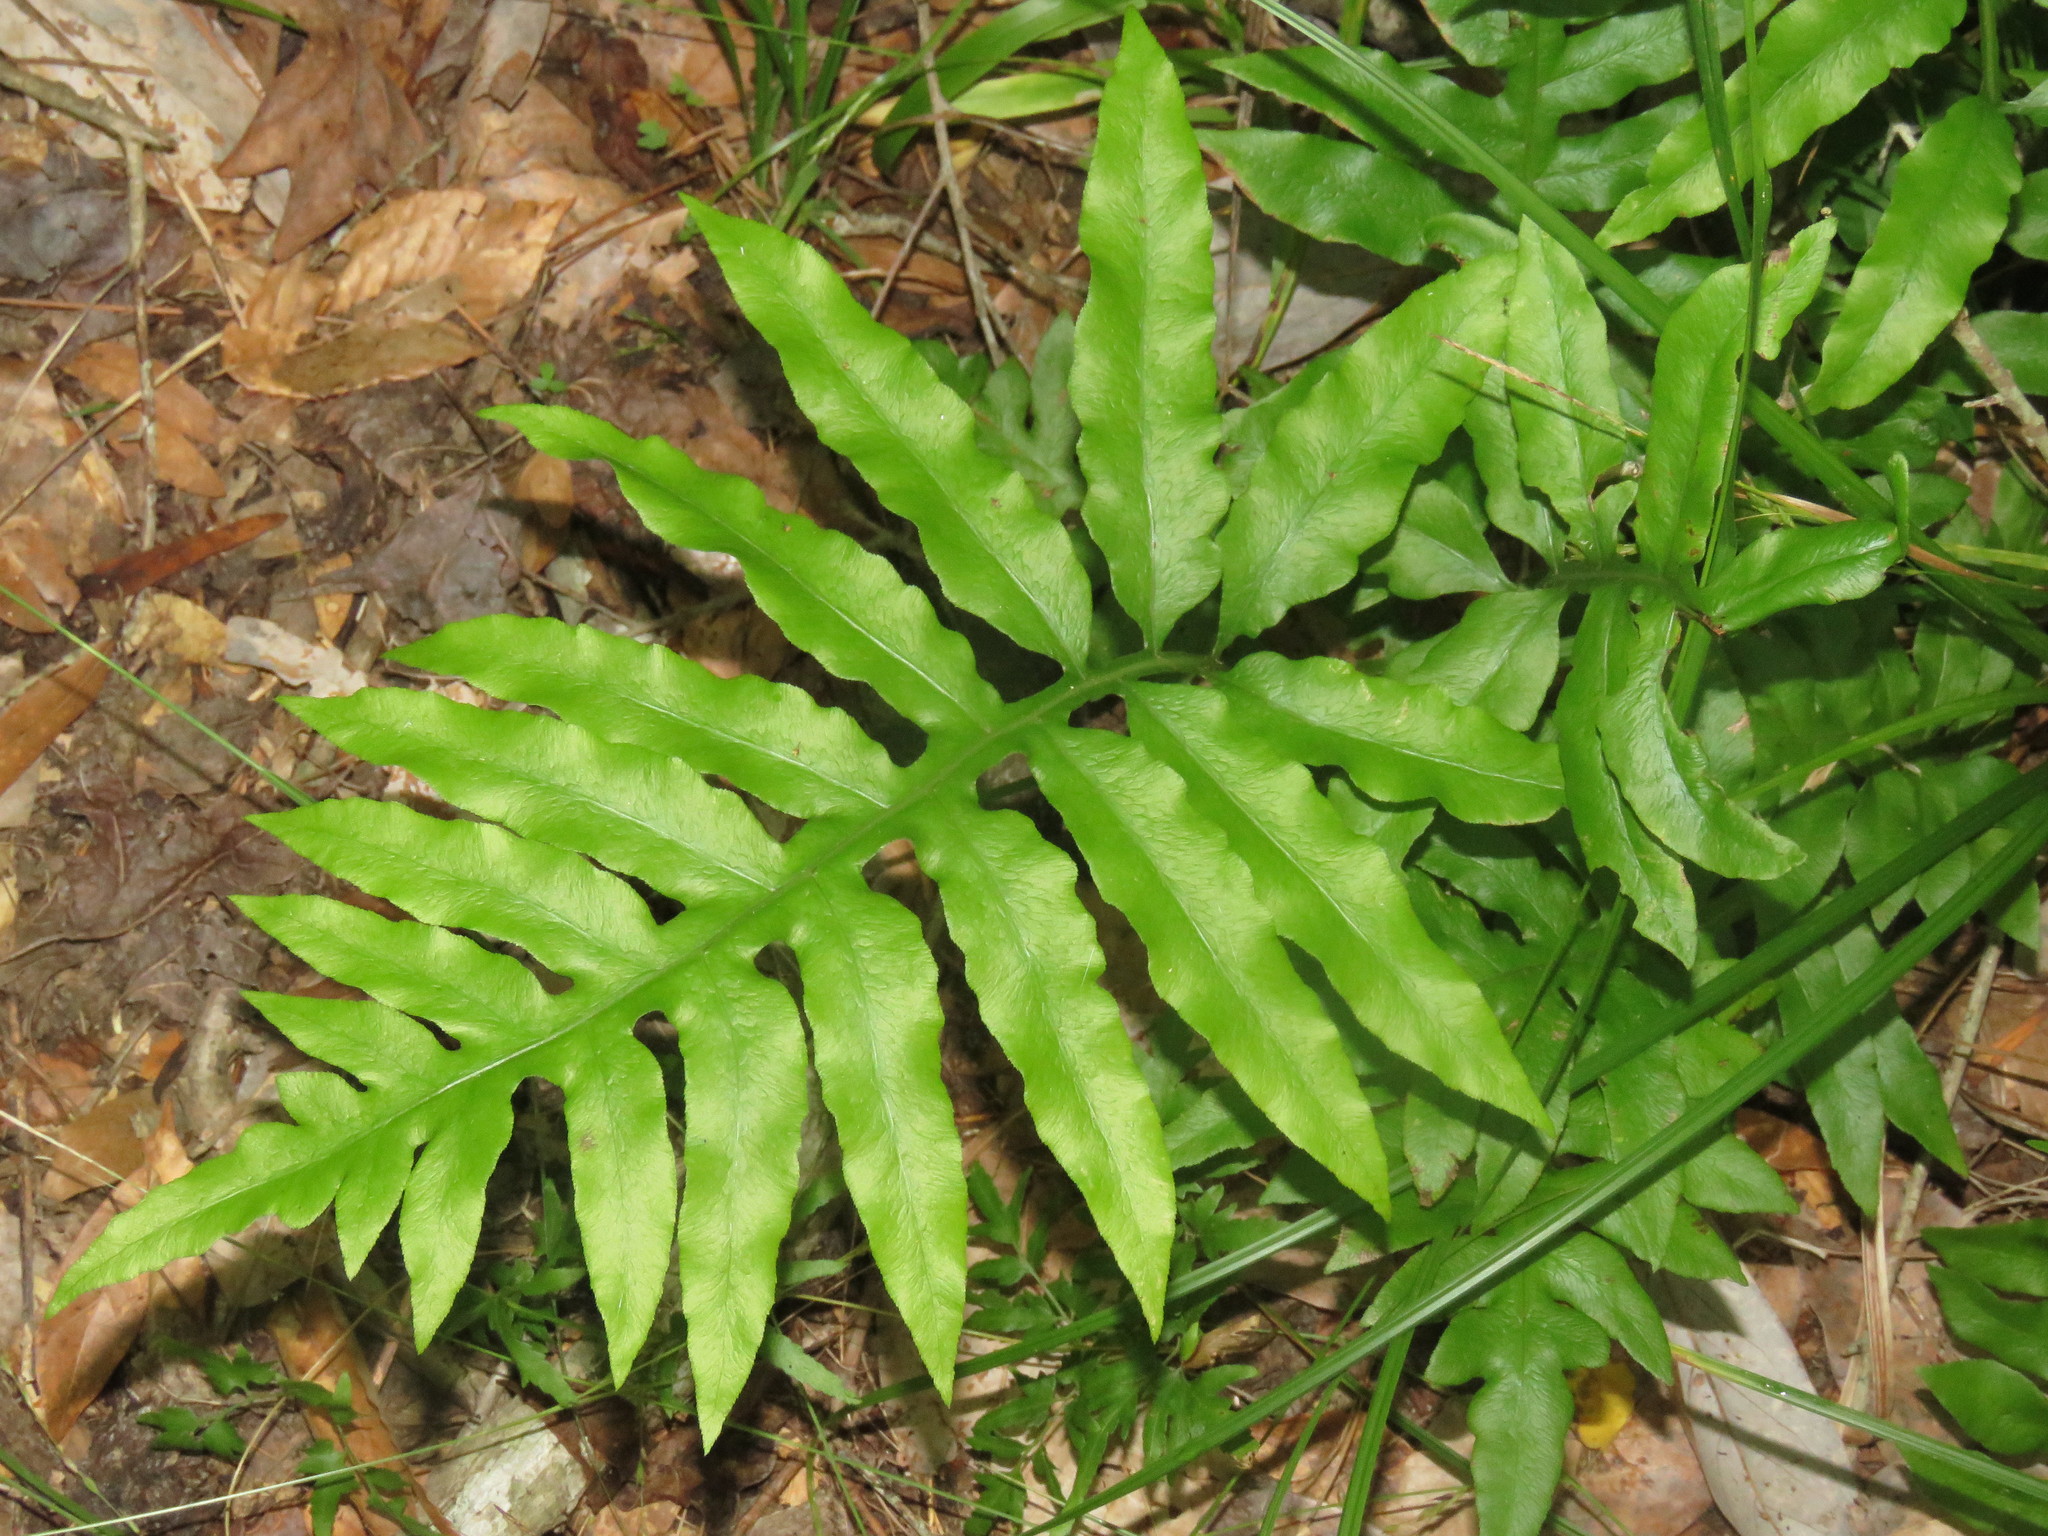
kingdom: Plantae
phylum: Tracheophyta
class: Polypodiopsida
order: Polypodiales
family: Blechnaceae
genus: Lorinseria
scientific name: Lorinseria areolata
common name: Dwarf chain fern
